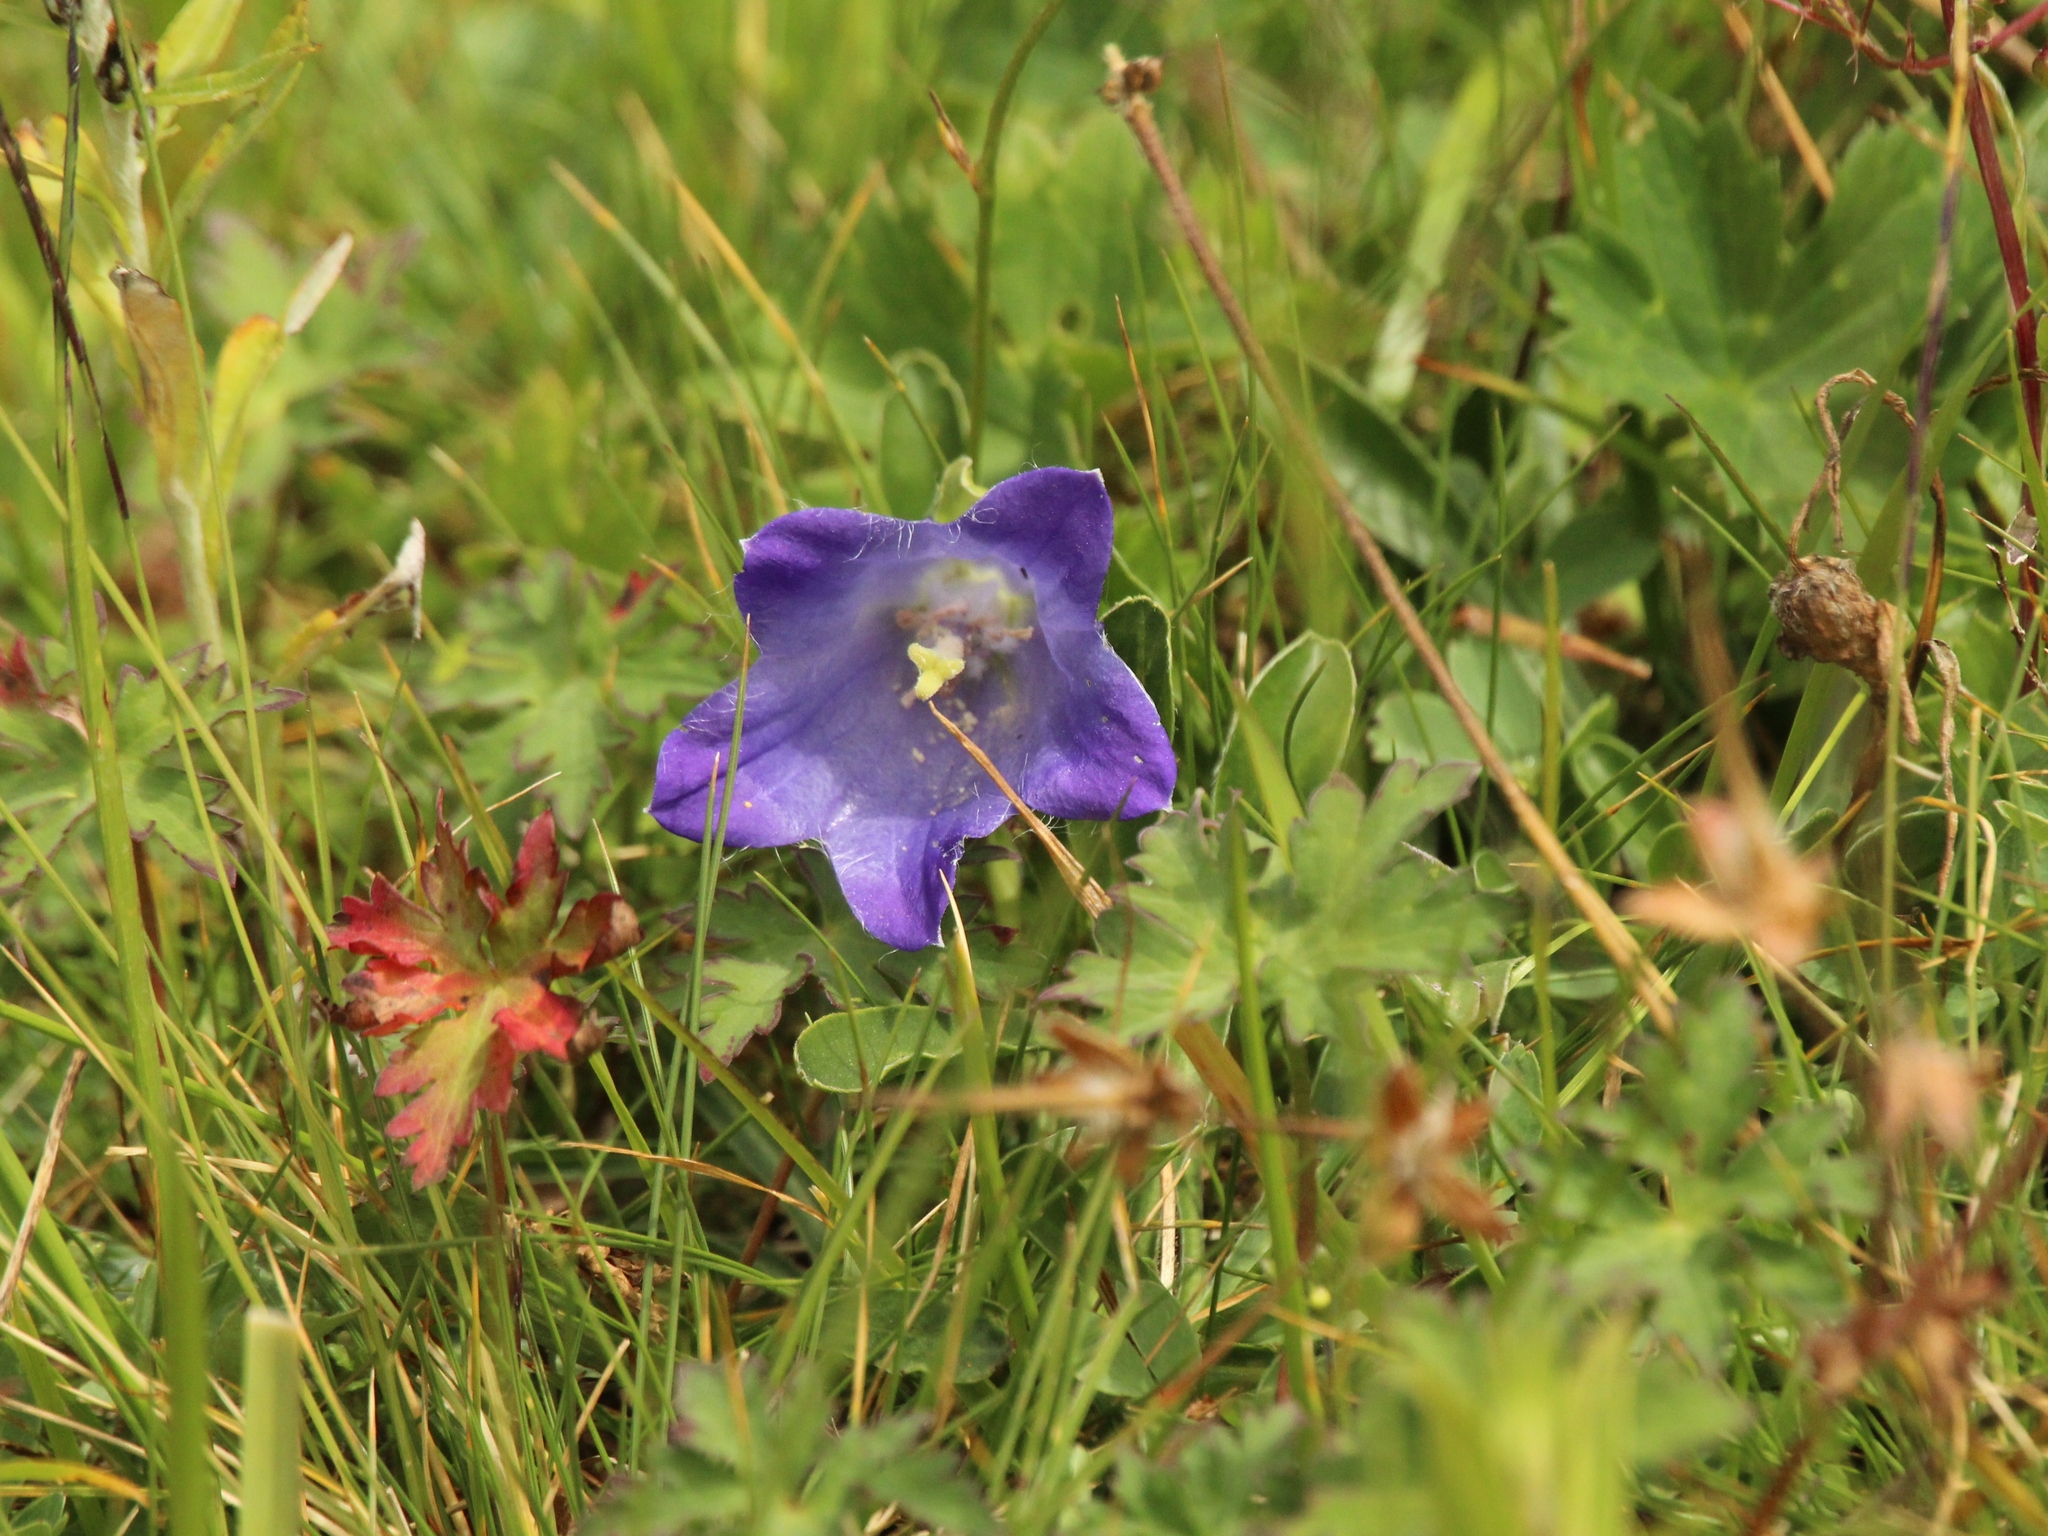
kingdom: Plantae
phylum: Tracheophyta
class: Magnoliopsida
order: Asterales
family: Campanulaceae
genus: Campanula
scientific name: Campanula tridentata
